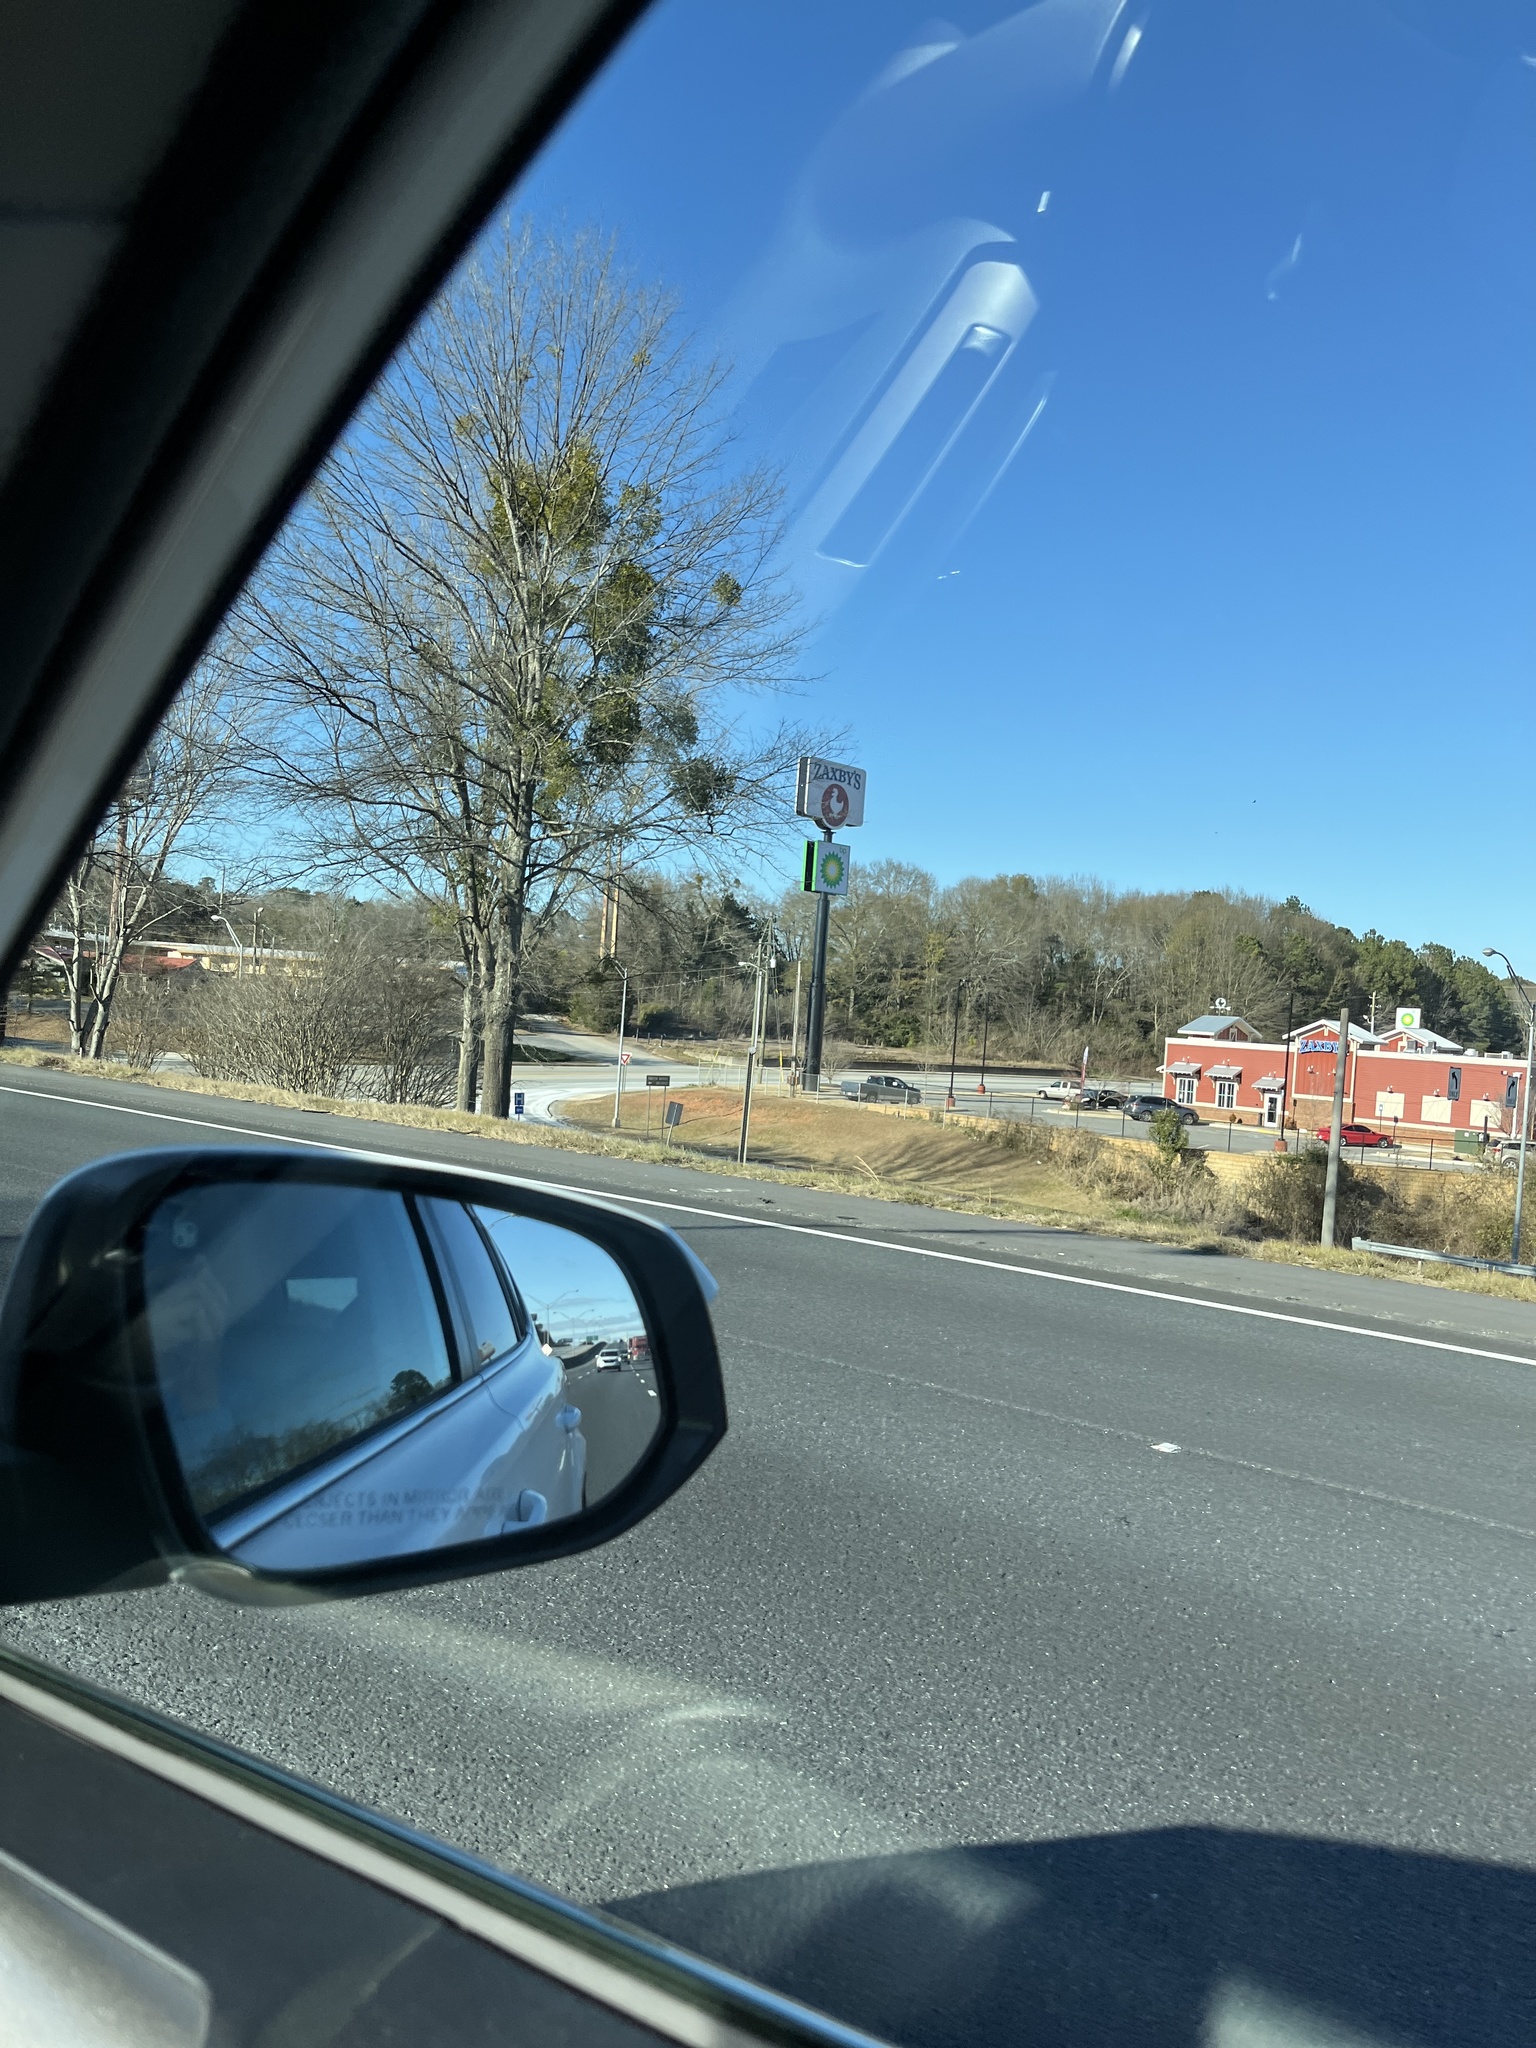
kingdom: Plantae
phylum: Tracheophyta
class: Magnoliopsida
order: Santalales
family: Viscaceae
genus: Phoradendron
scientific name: Phoradendron leucarpum
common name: Pacific mistletoe
